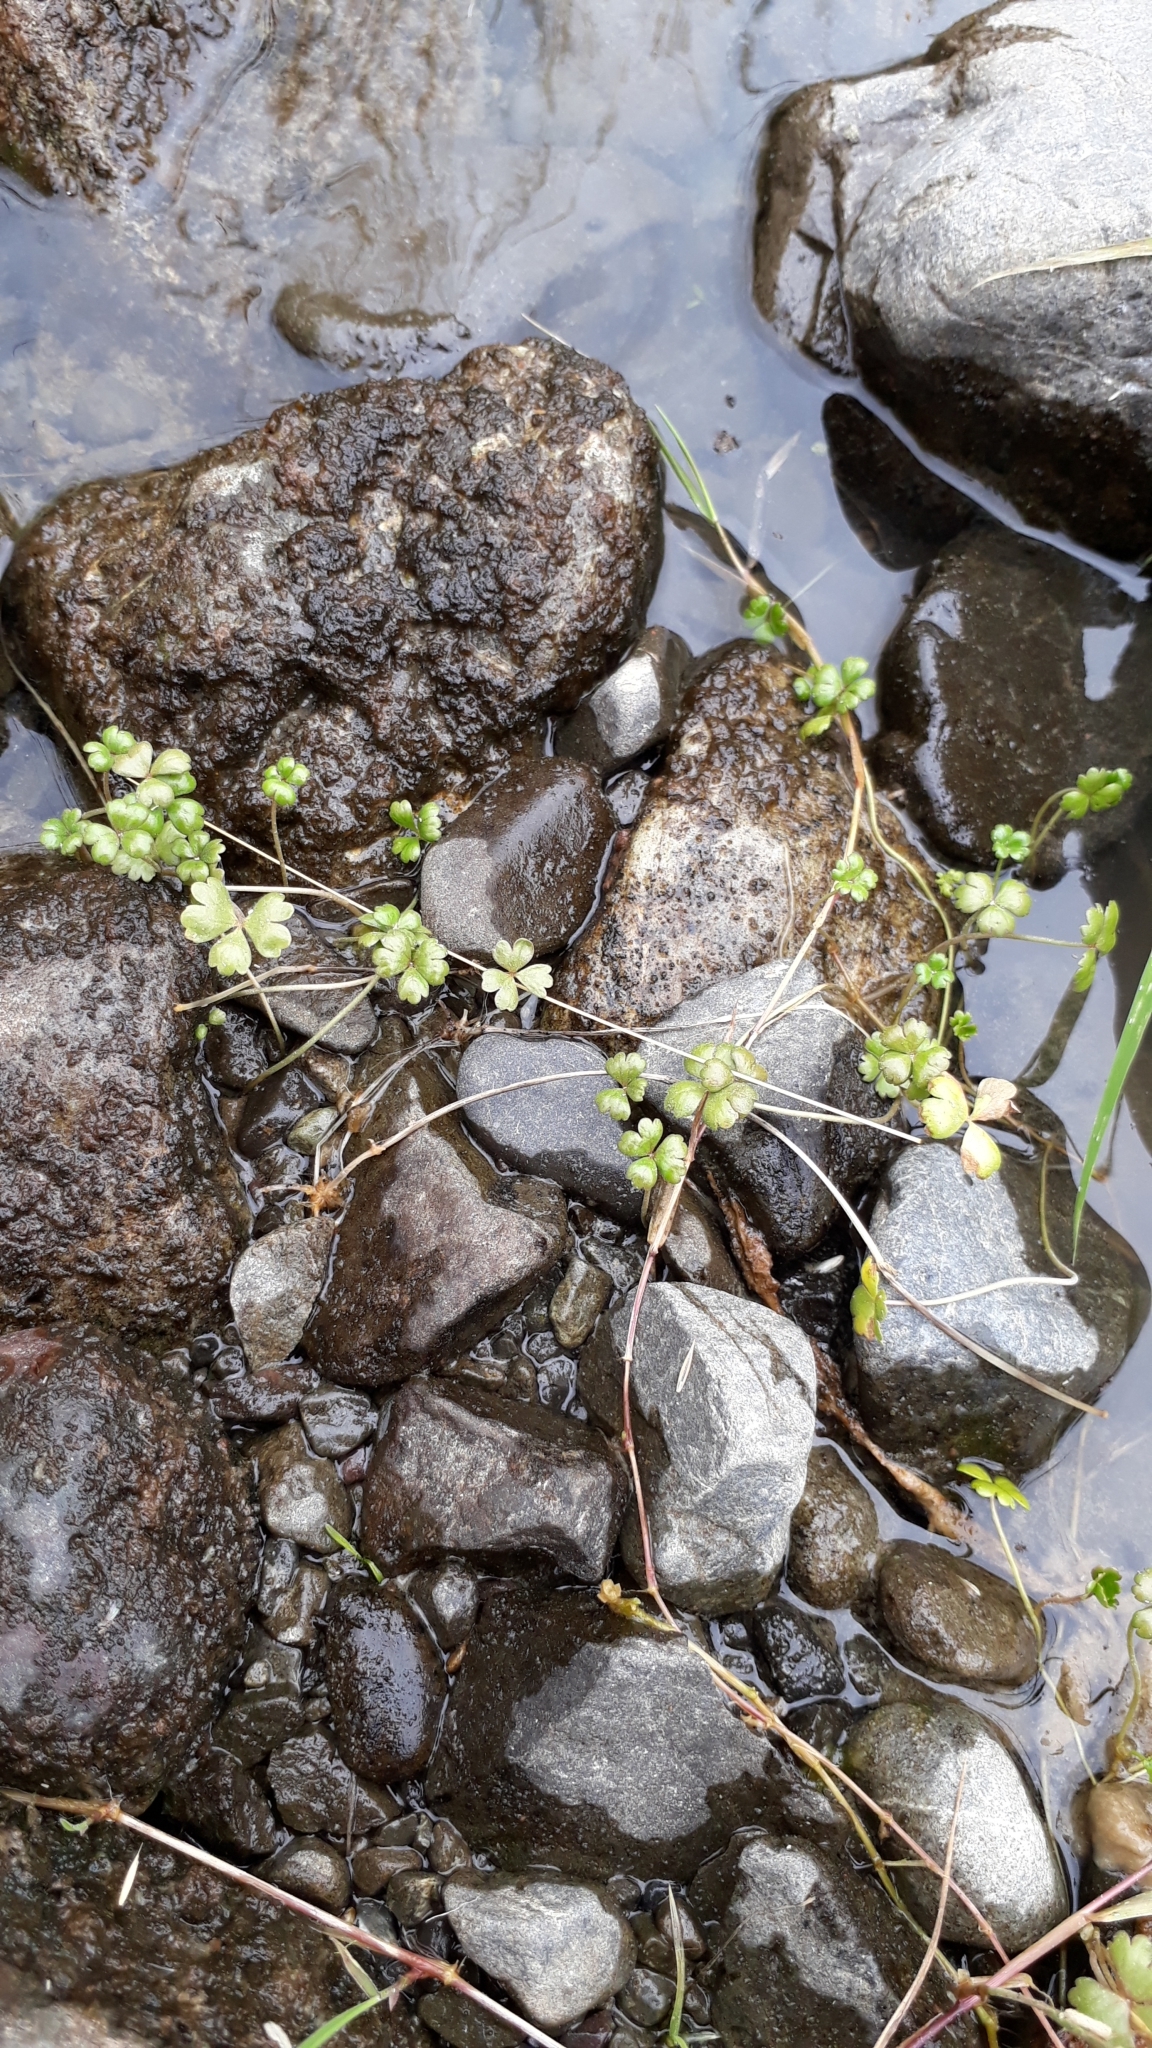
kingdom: Plantae
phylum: Tracheophyta
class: Magnoliopsida
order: Apiales
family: Araliaceae
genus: Hydrocotyle
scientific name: Hydrocotyle sulcata
